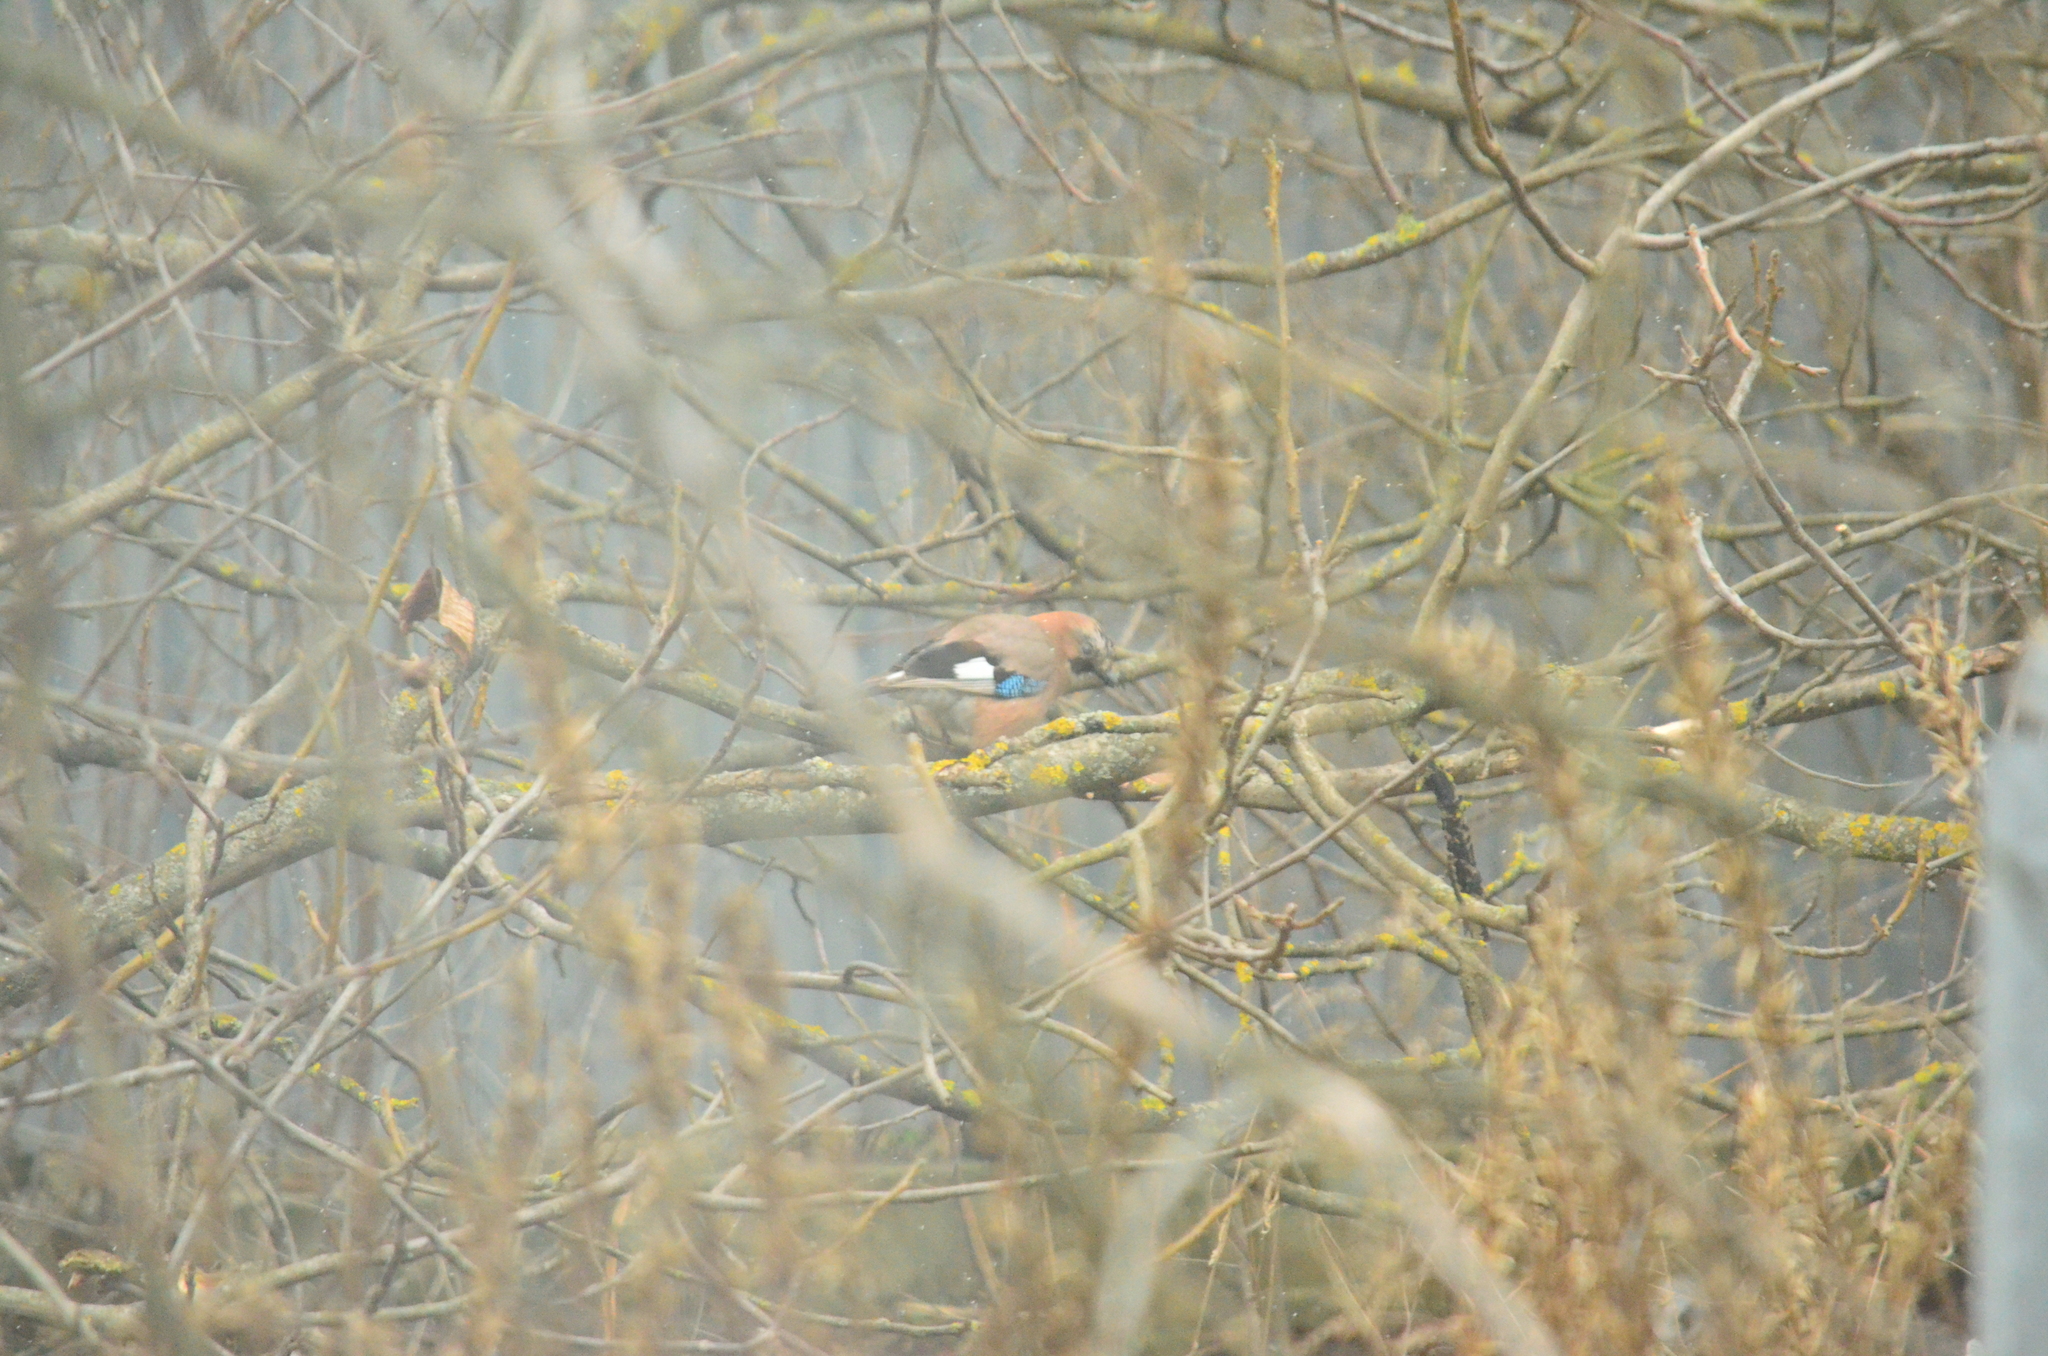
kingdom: Animalia
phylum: Chordata
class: Aves
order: Passeriformes
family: Corvidae
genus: Garrulus
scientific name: Garrulus glandarius
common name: Eurasian jay
